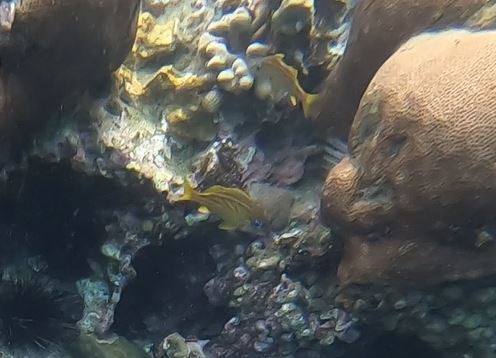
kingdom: Animalia
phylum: Chordata
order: Perciformes
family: Haemulidae
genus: Haemulon
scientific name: Haemulon flavolineatum
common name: French grunt
